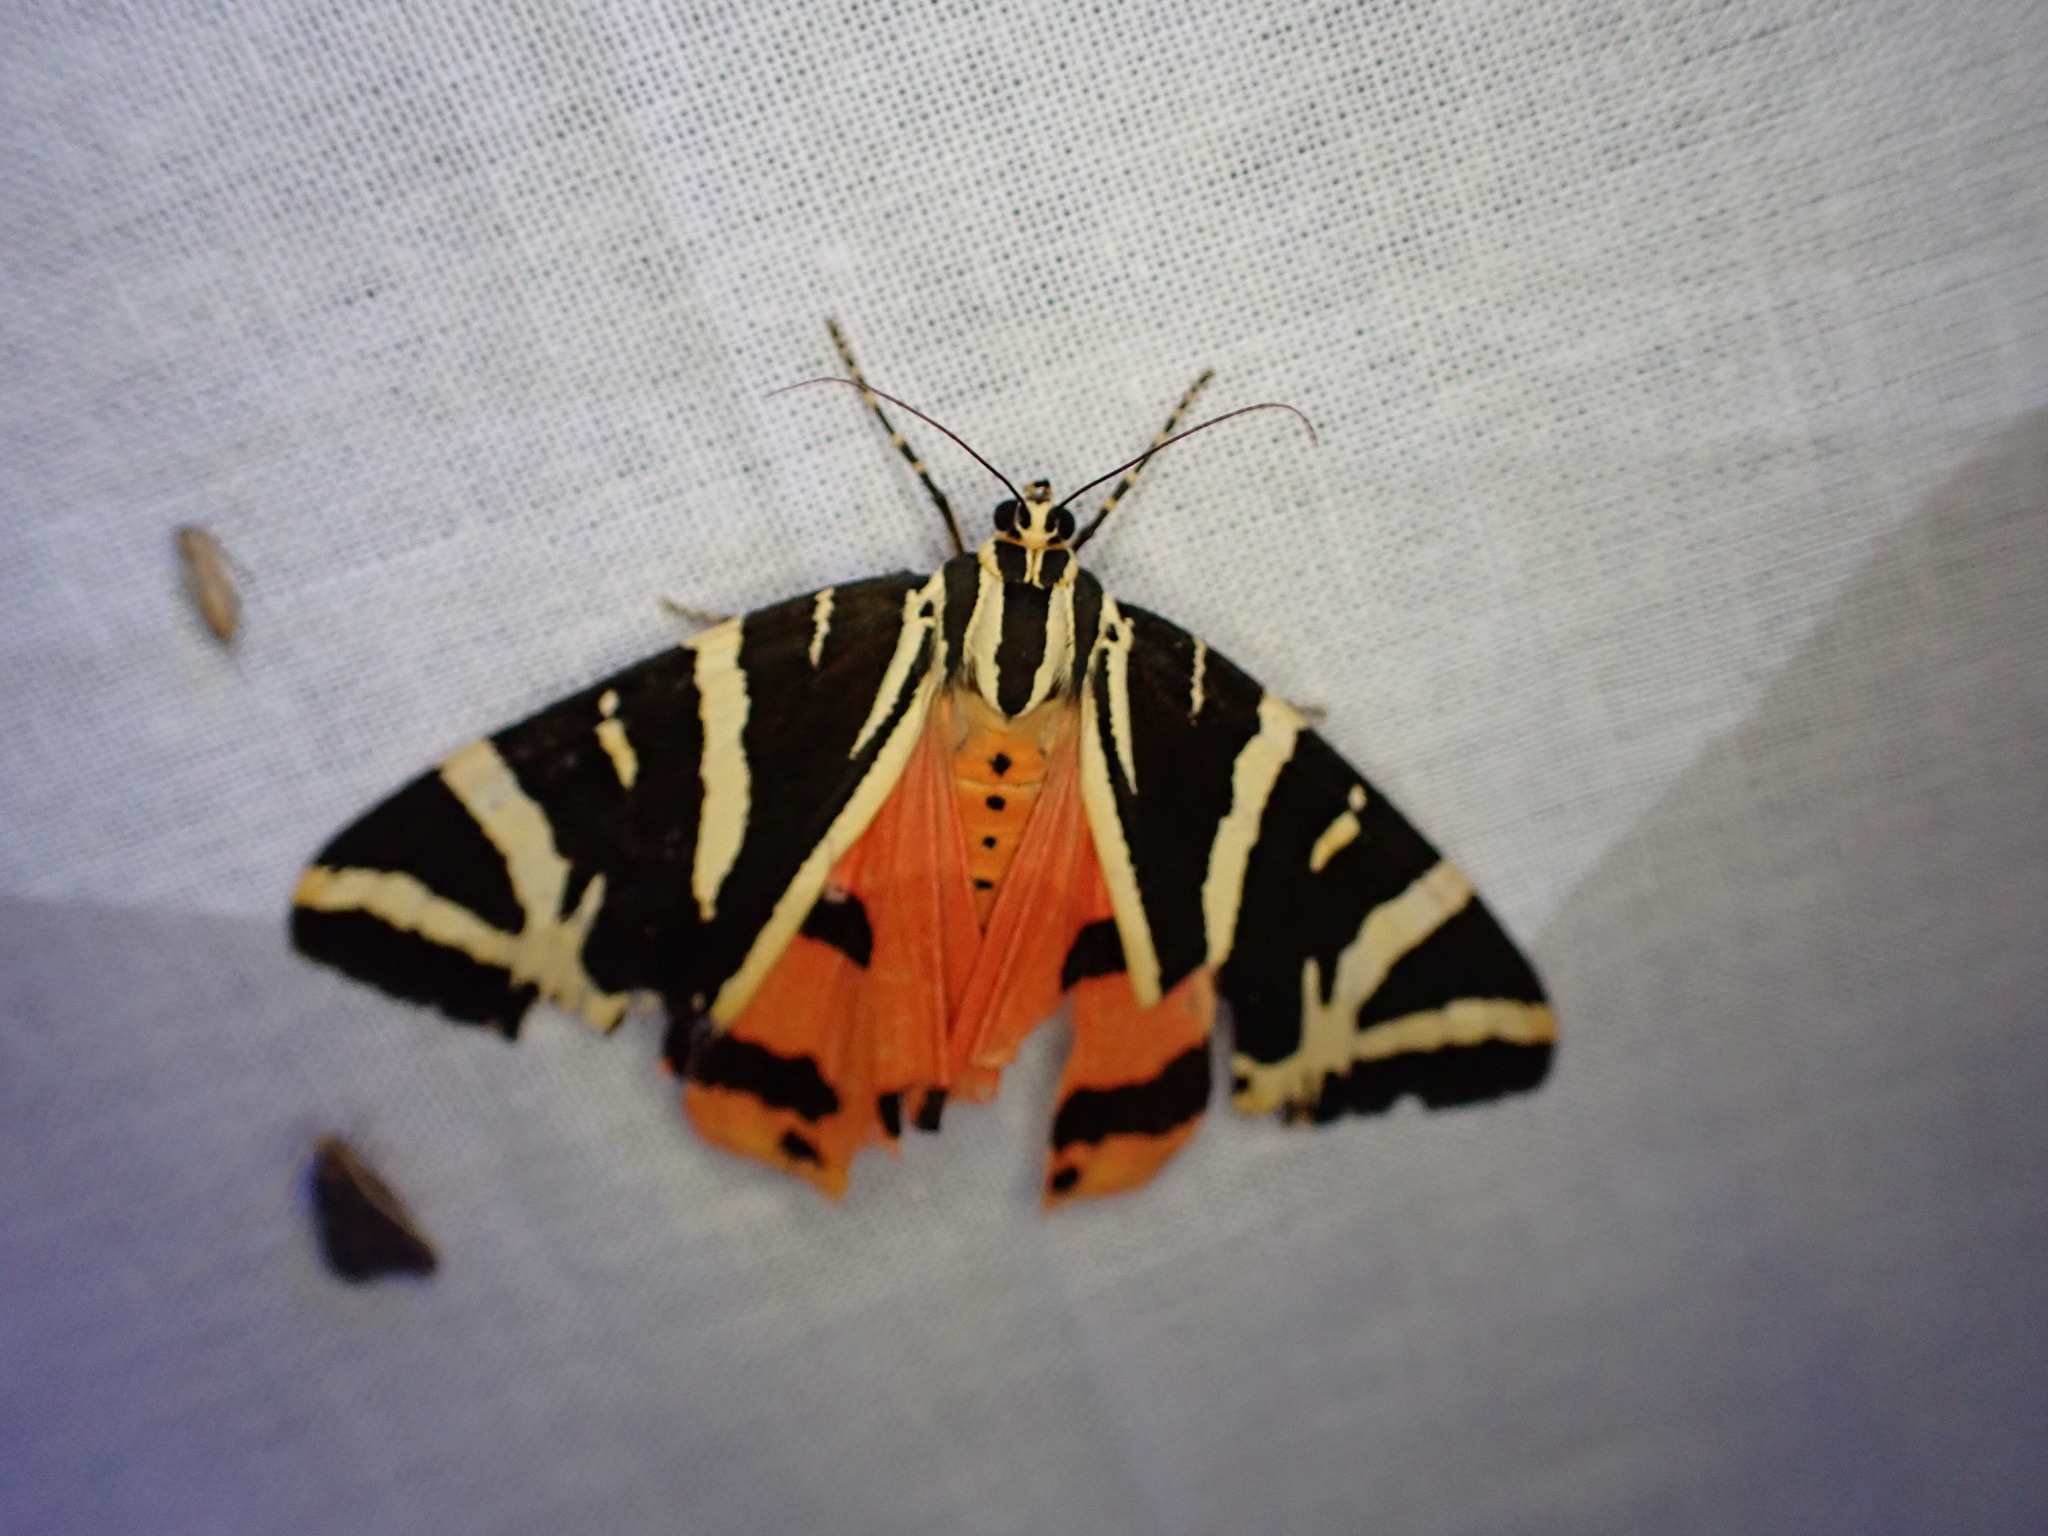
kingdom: Animalia
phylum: Arthropoda
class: Insecta
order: Lepidoptera
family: Erebidae
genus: Euplagia
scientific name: Euplagia quadripunctaria
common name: Jersey tiger
